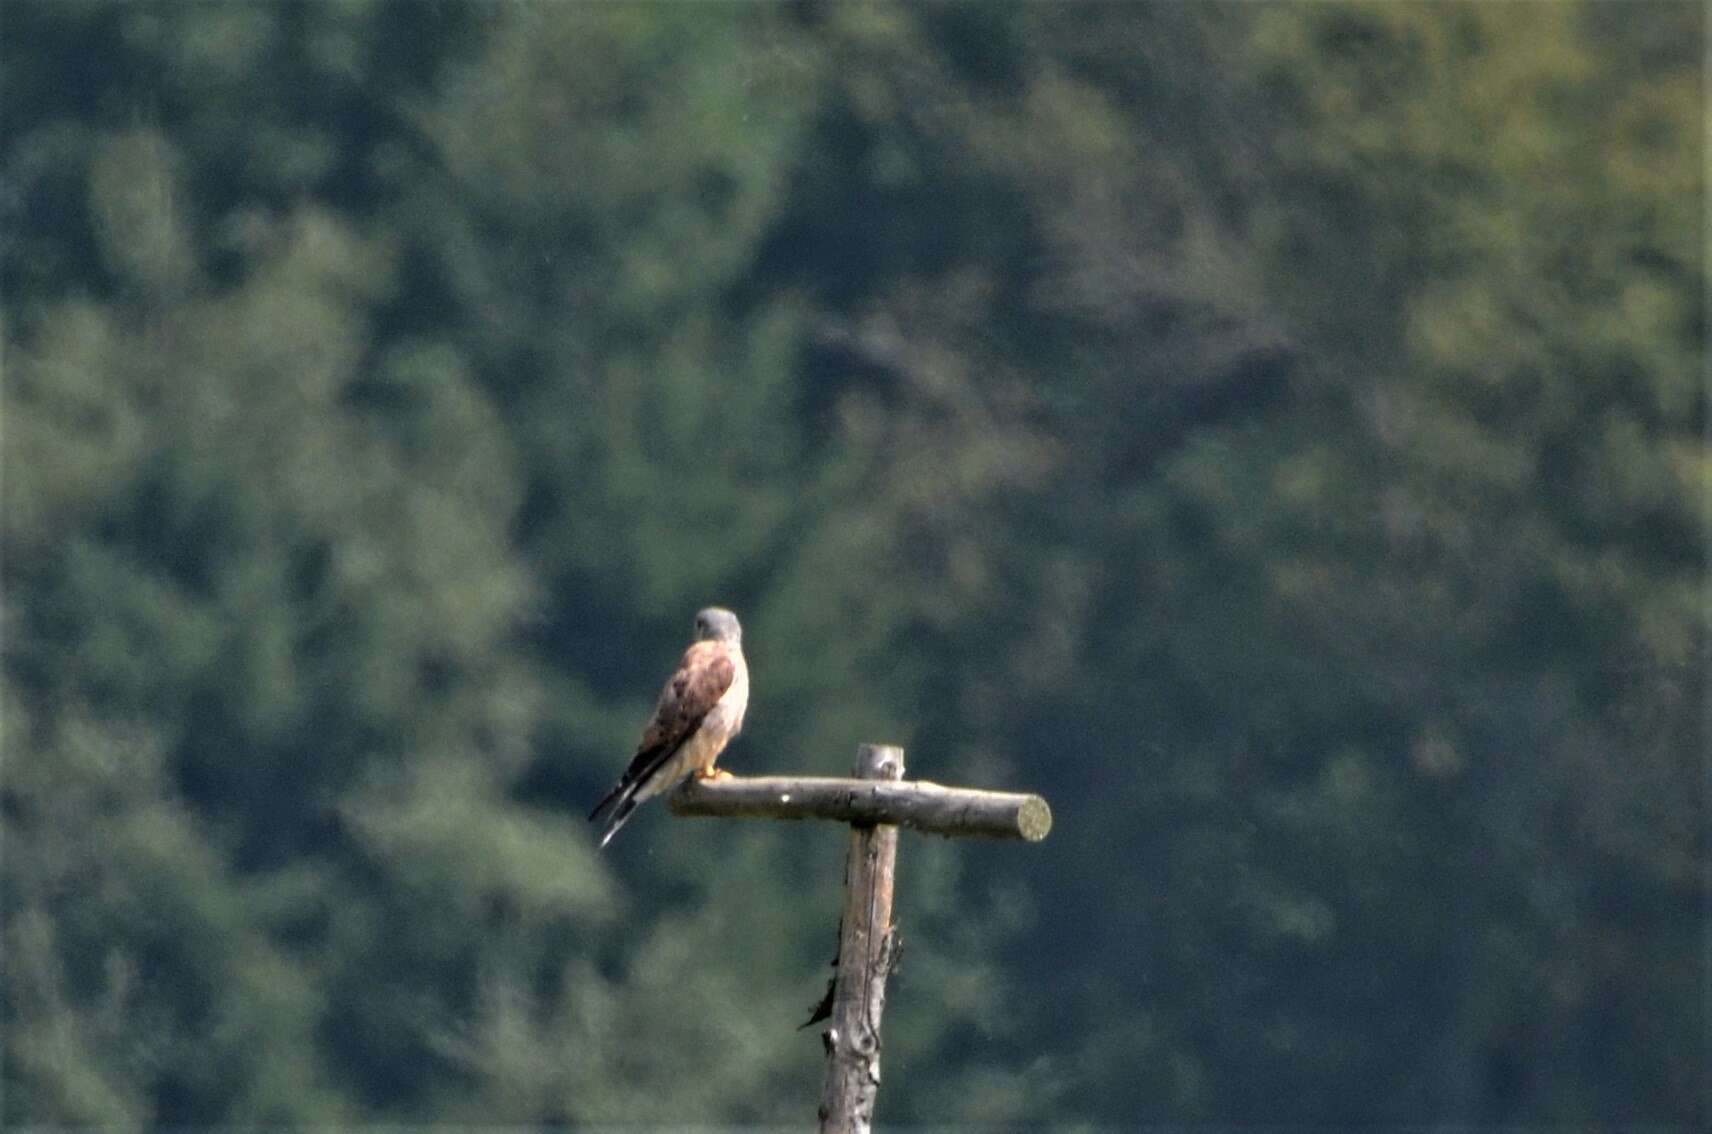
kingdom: Animalia
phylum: Chordata
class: Aves
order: Falconiformes
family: Falconidae
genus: Falco
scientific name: Falco tinnunculus
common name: Common kestrel
